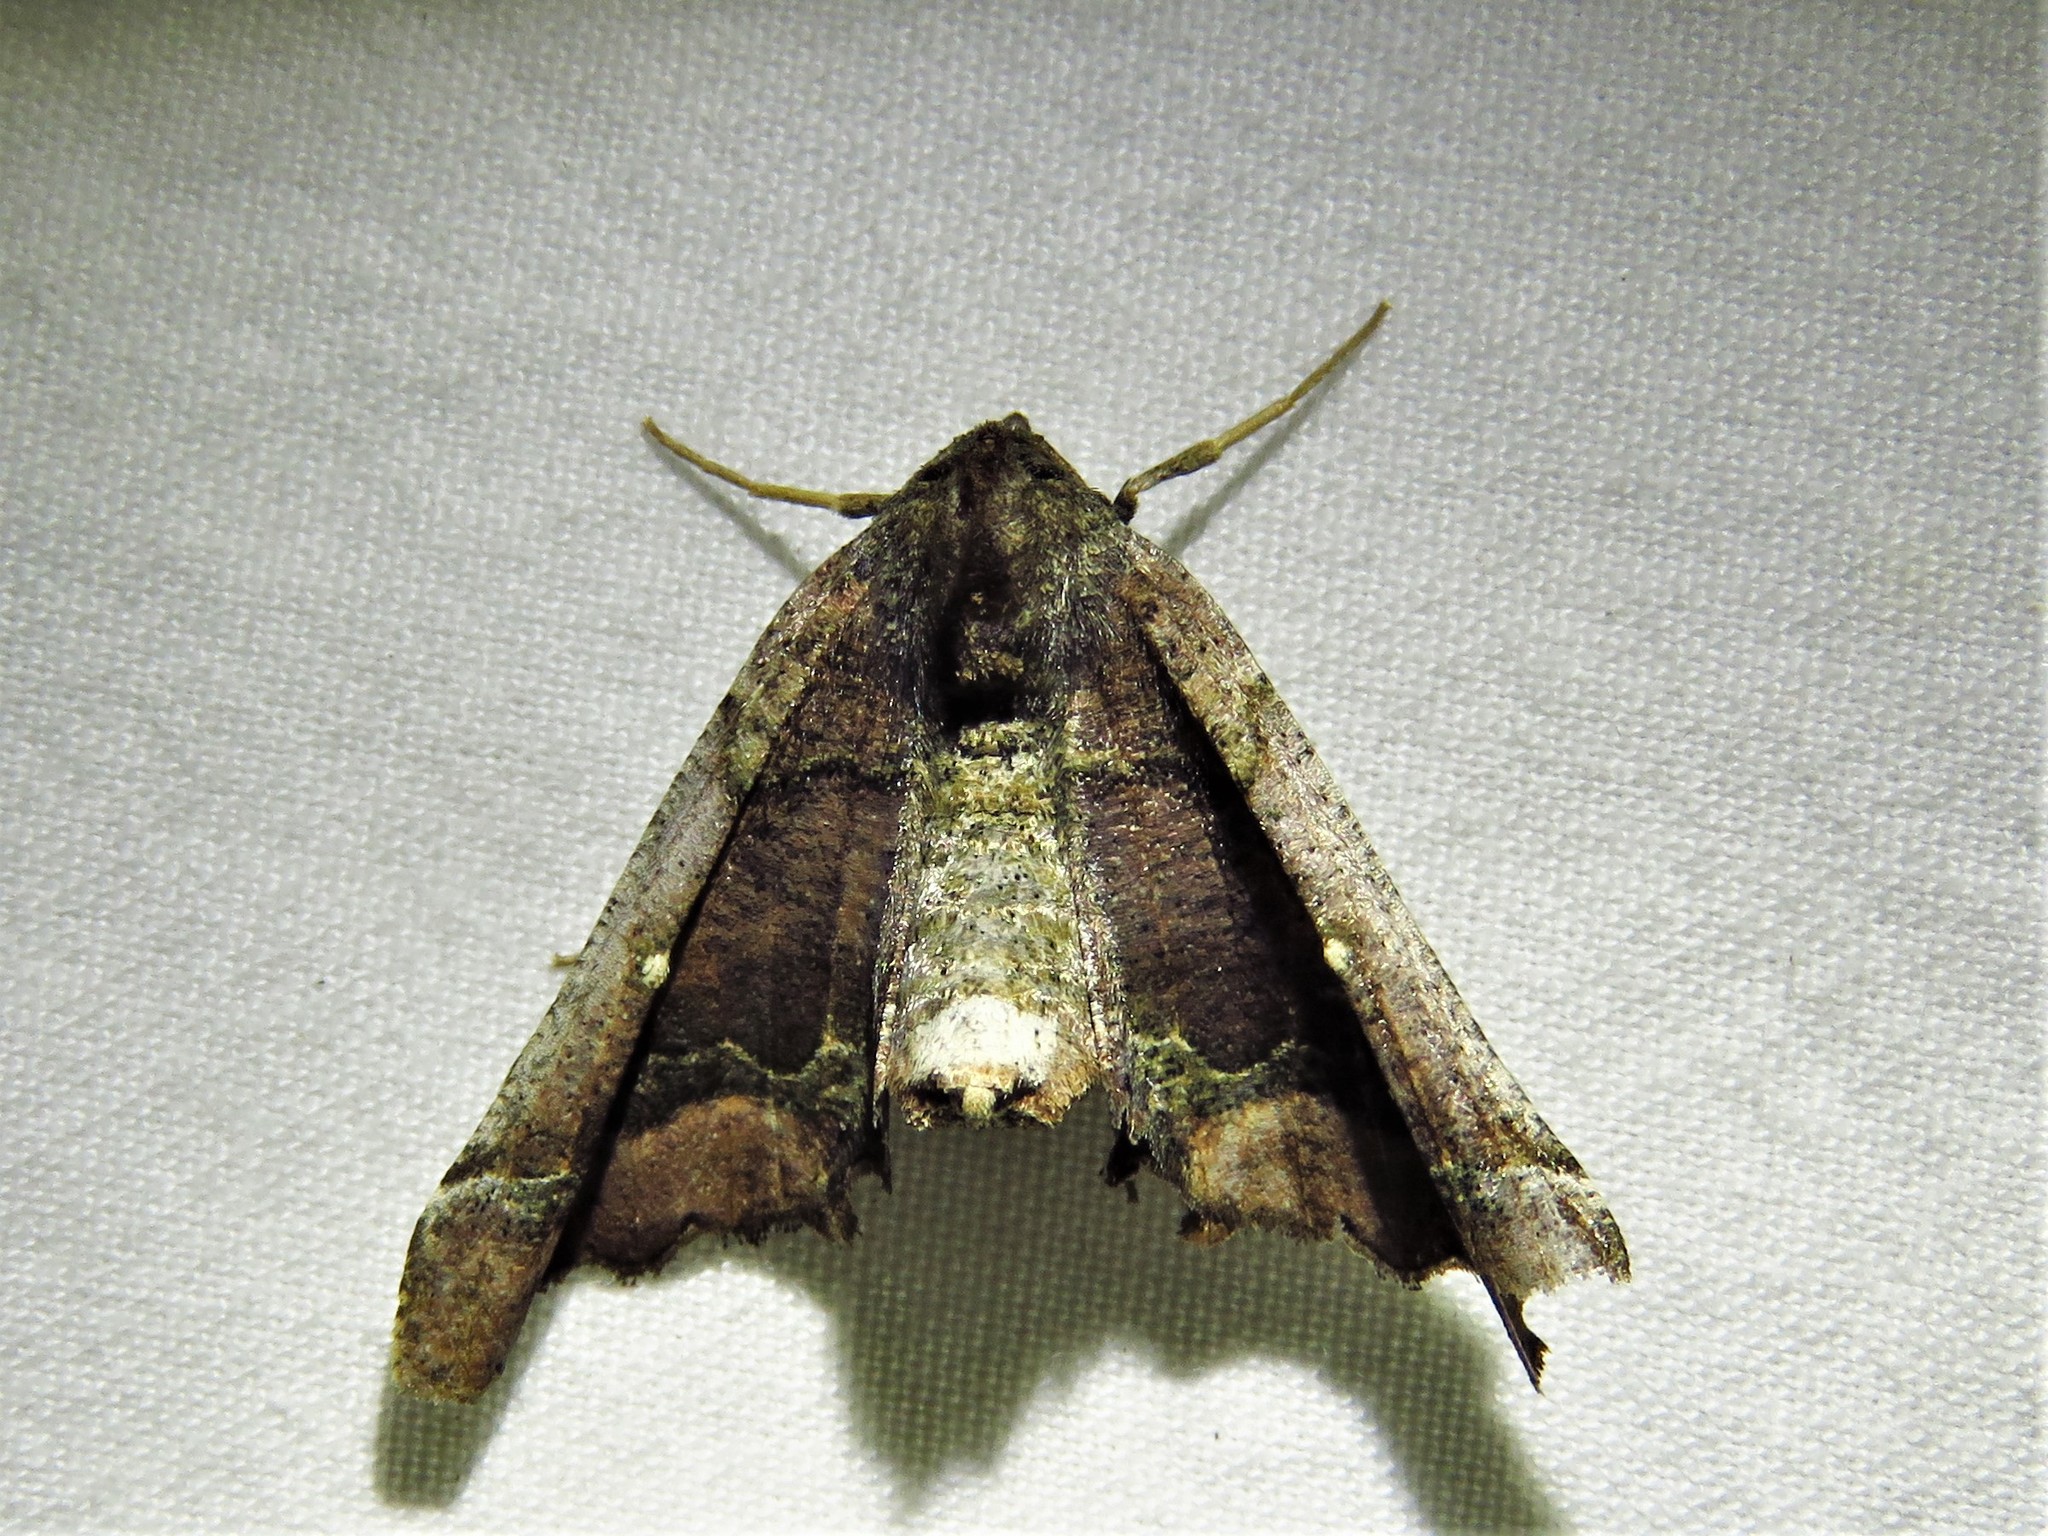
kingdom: Animalia
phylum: Arthropoda
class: Insecta
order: Lepidoptera
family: Geometridae
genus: Pero
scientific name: Pero meskaria
